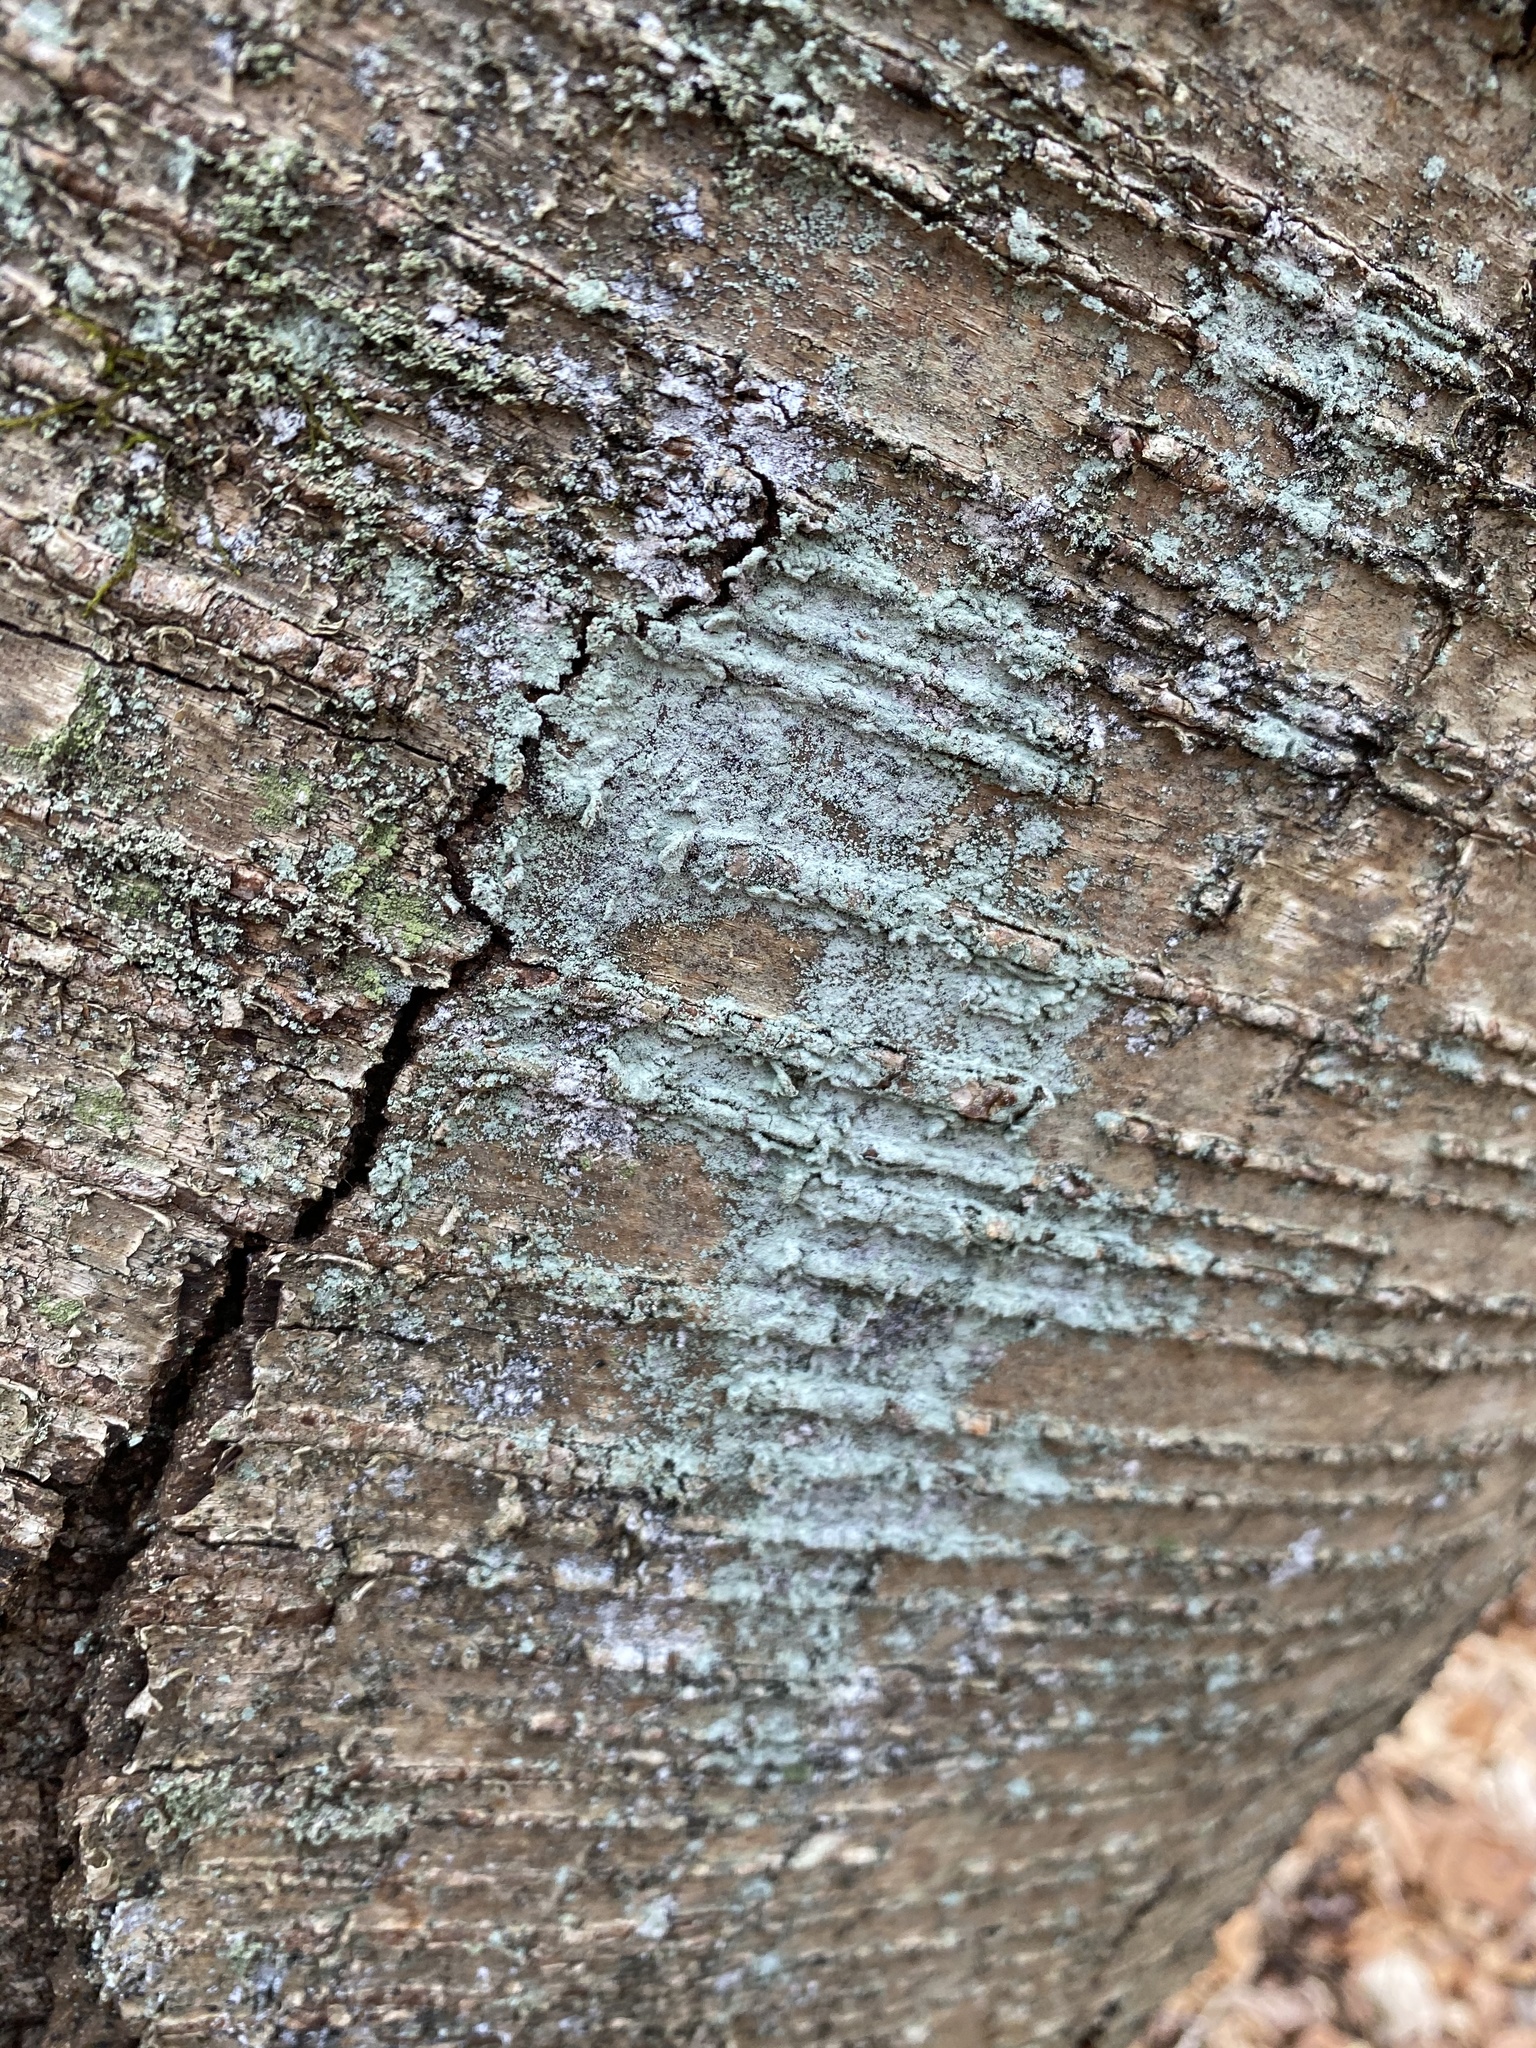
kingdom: Fungi
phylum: Ascomycota
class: Lecanoromycetes
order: Lecanorales
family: Stereocaulaceae
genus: Lepraria
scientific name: Lepraria caesiella
